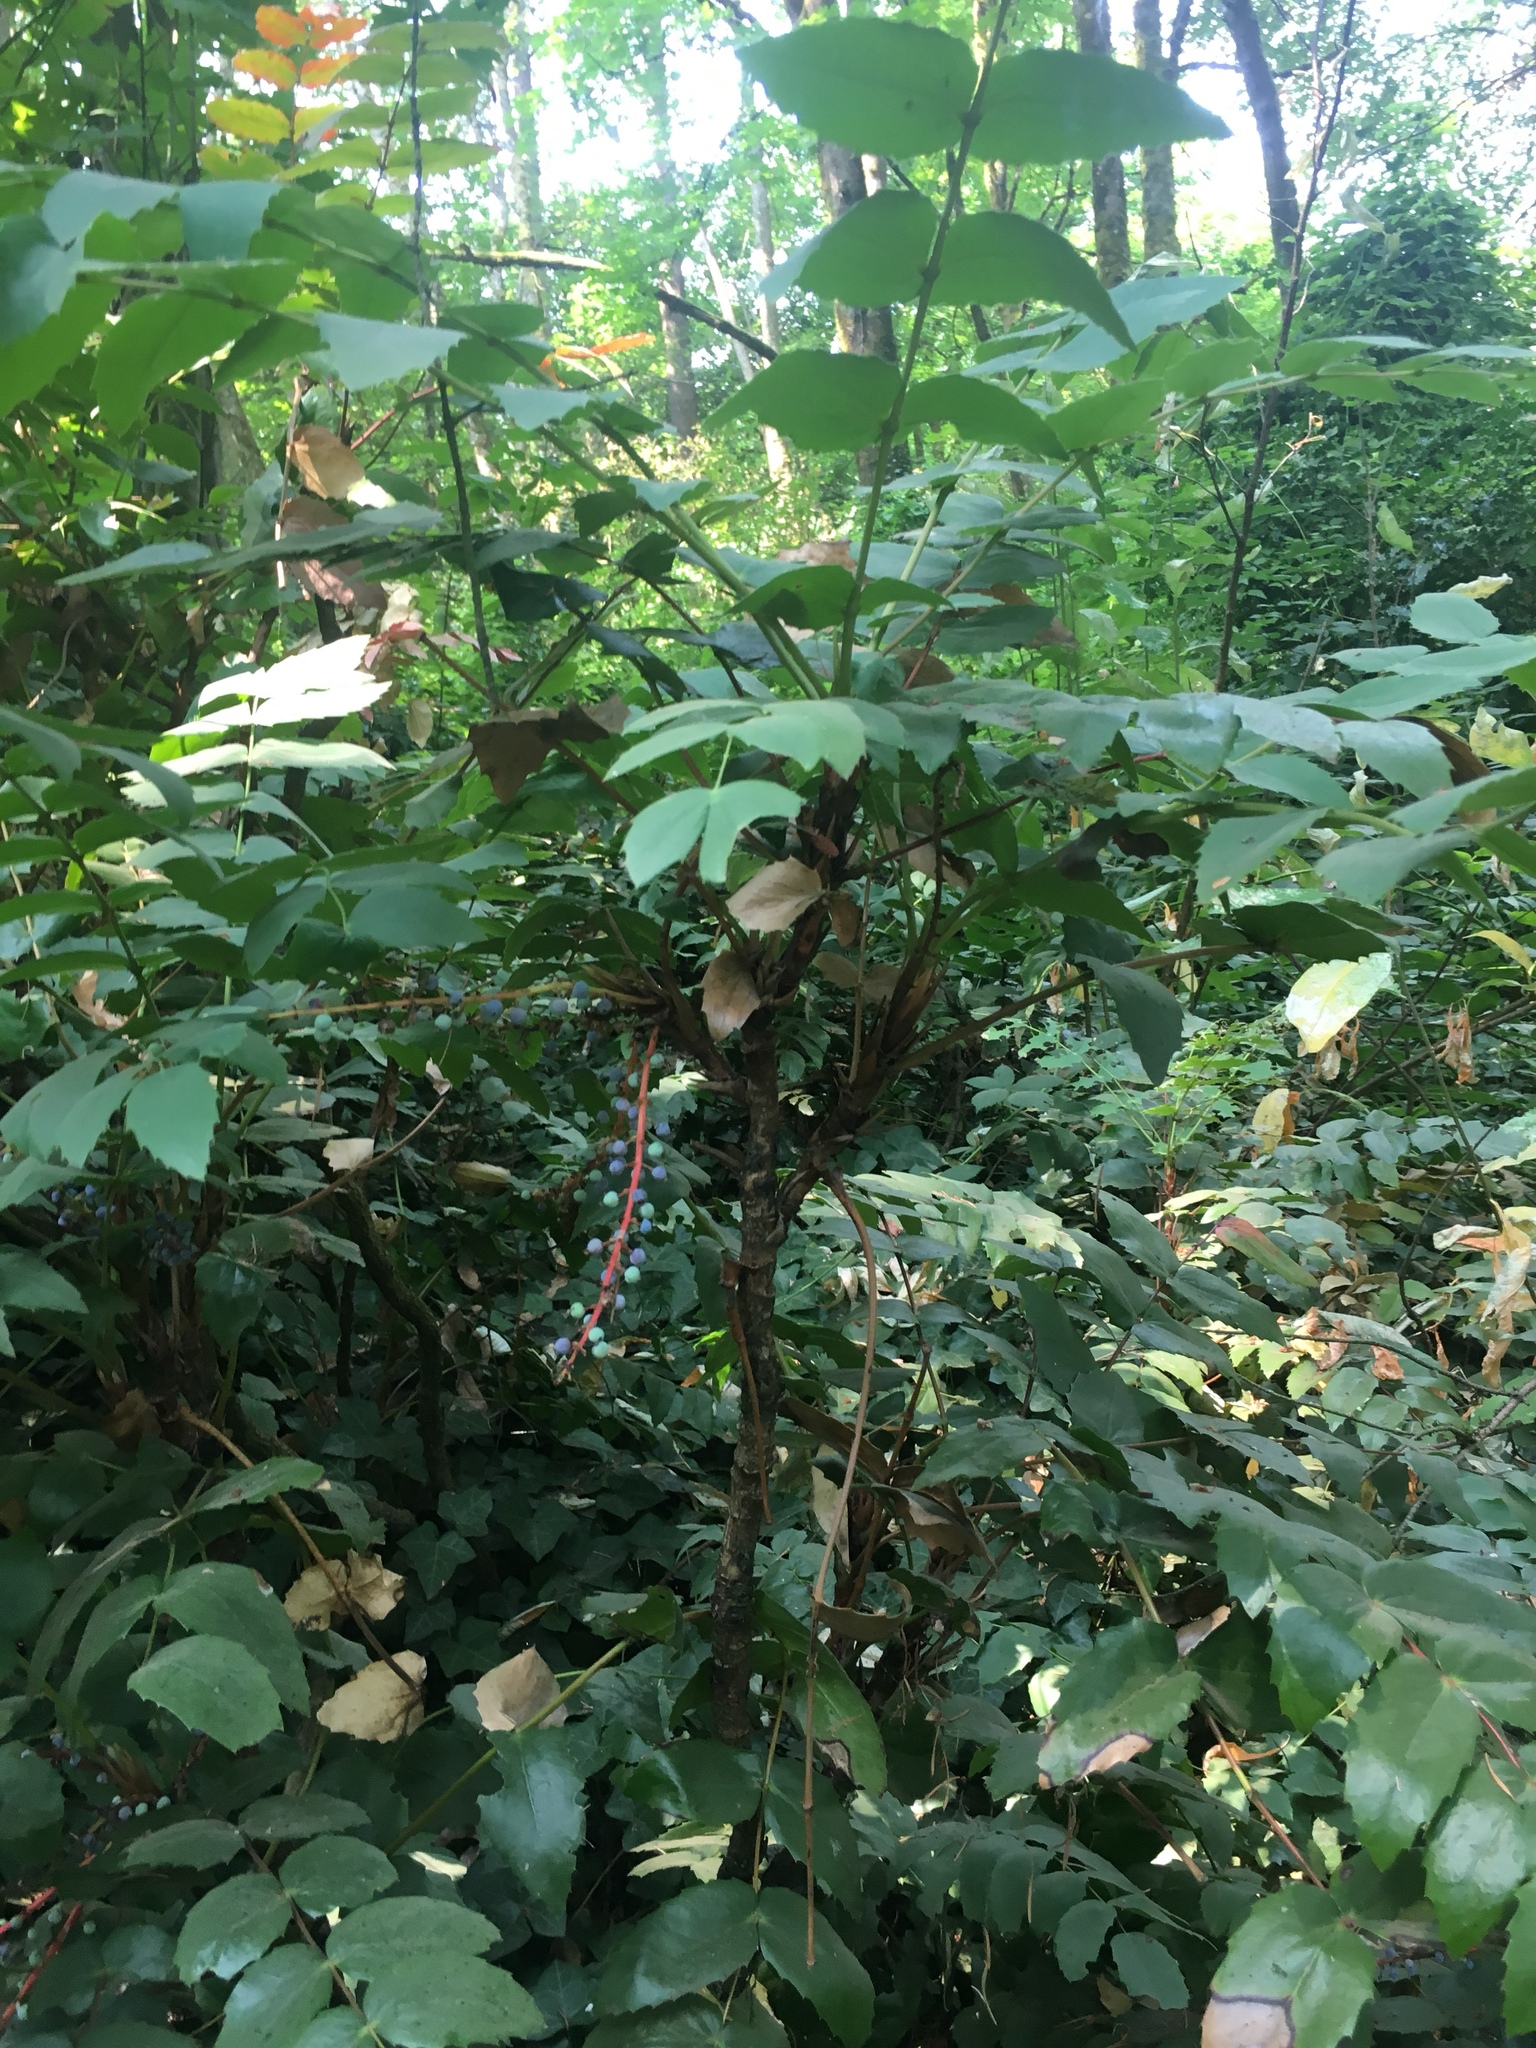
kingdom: Plantae
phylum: Tracheophyta
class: Magnoliopsida
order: Ranunculales
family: Berberidaceae
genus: Mahonia
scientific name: Mahonia nervosa
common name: Cascade oregon-grape
